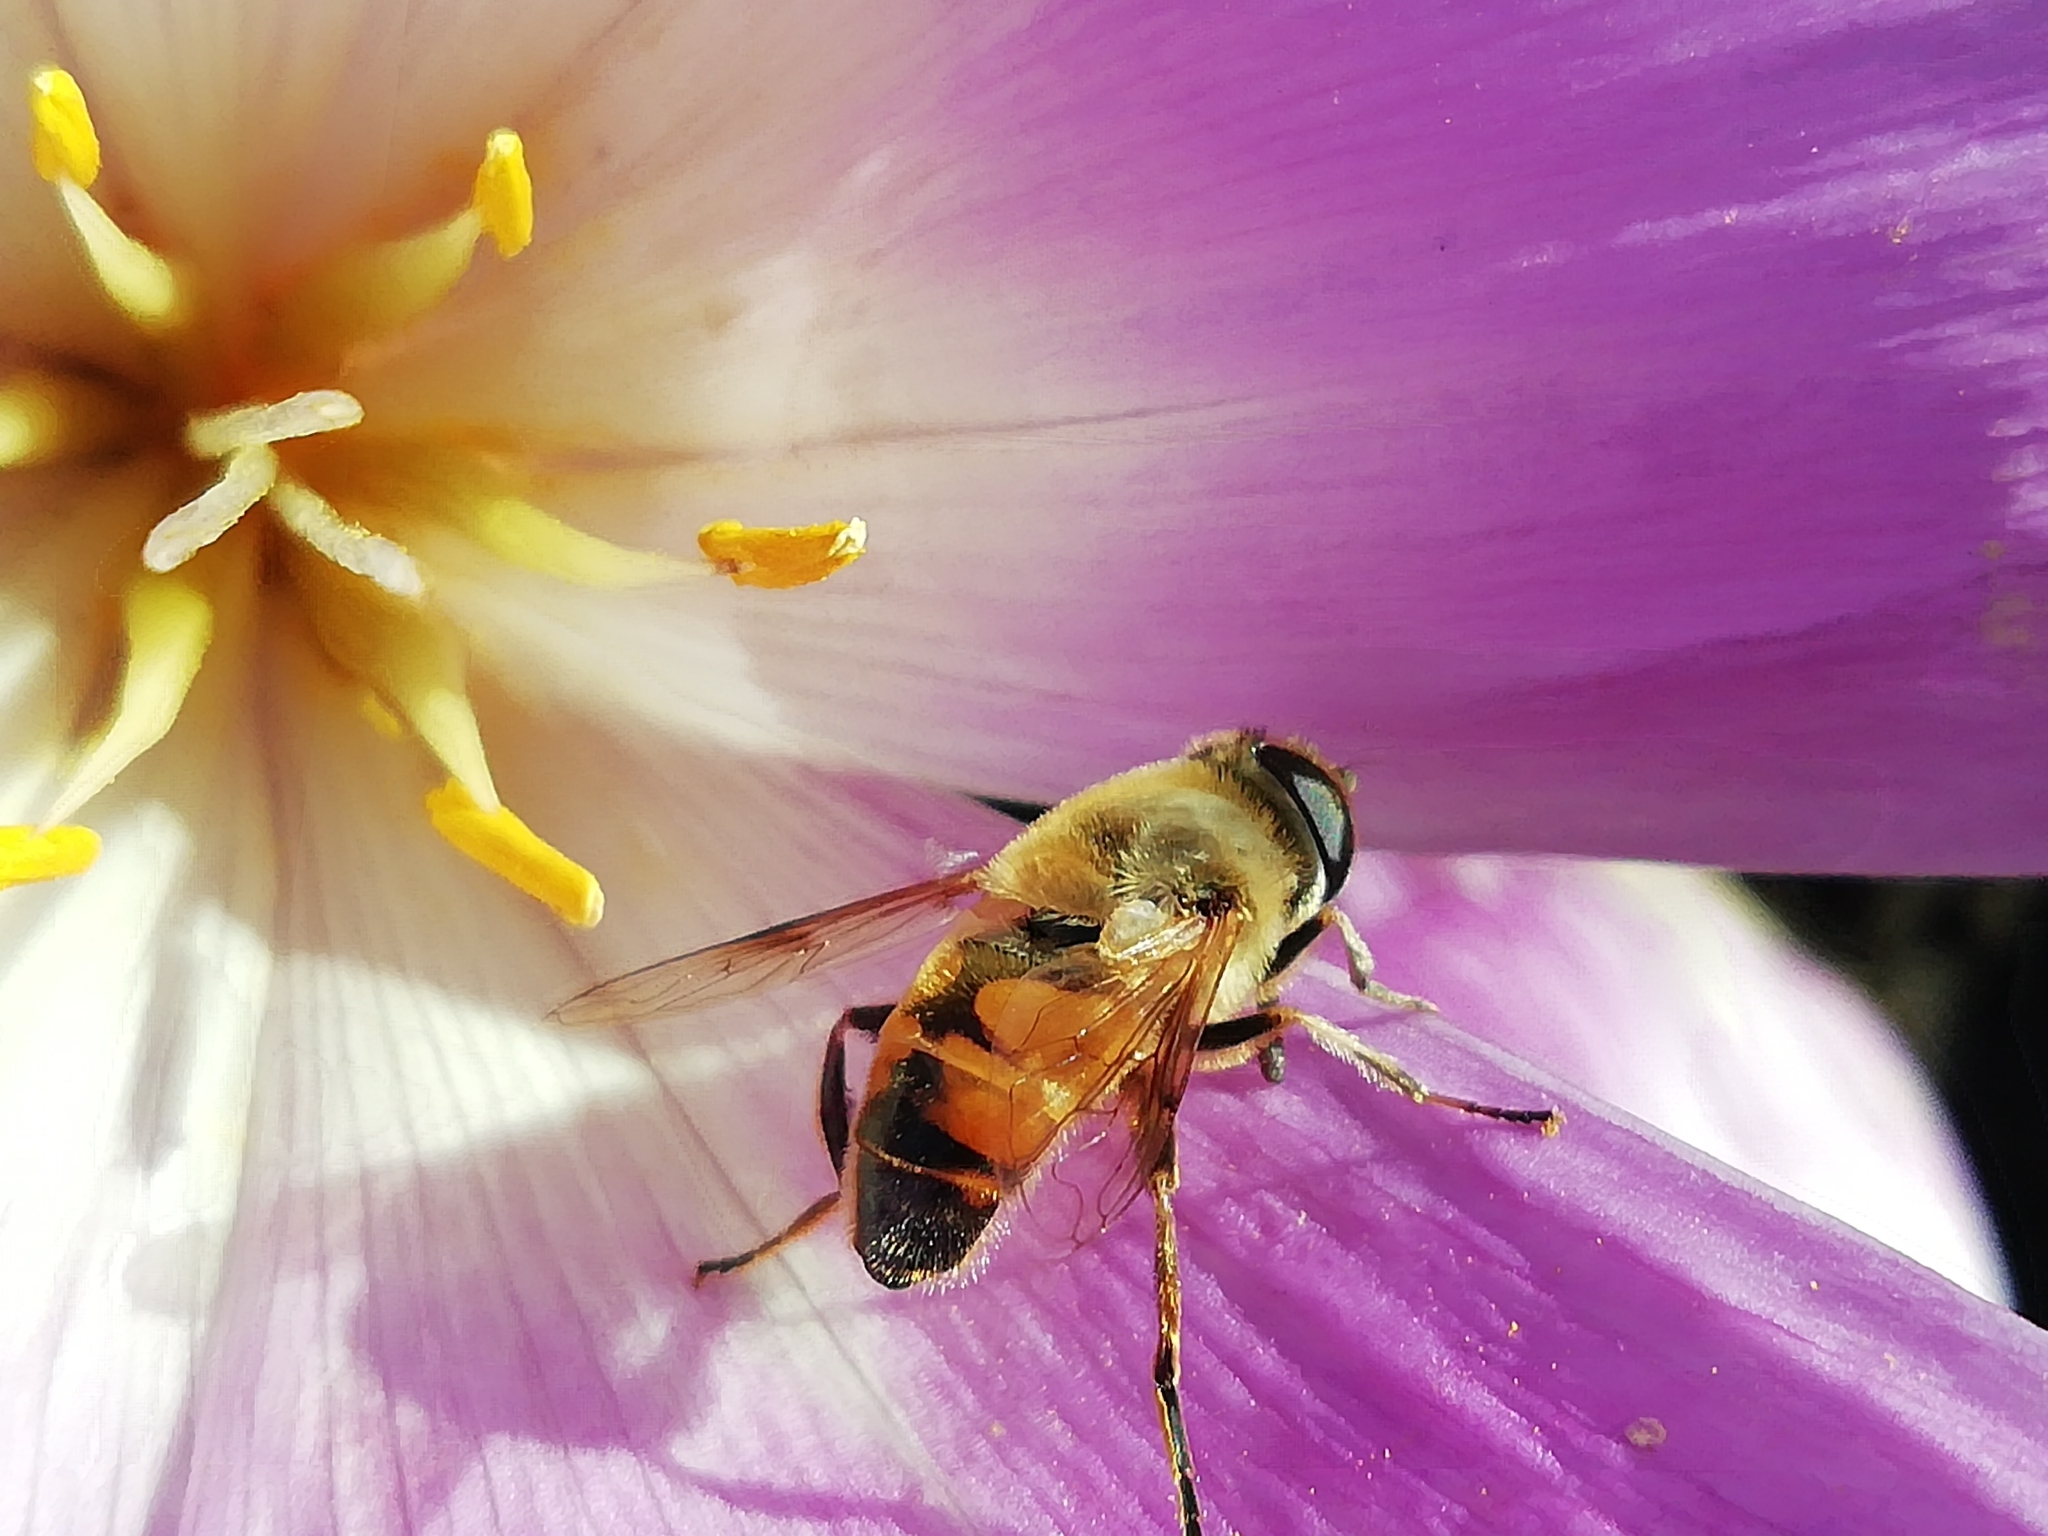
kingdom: Animalia
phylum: Arthropoda
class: Insecta
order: Diptera
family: Syrphidae
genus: Eristalis
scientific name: Eristalis tenax
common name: Drone fly
